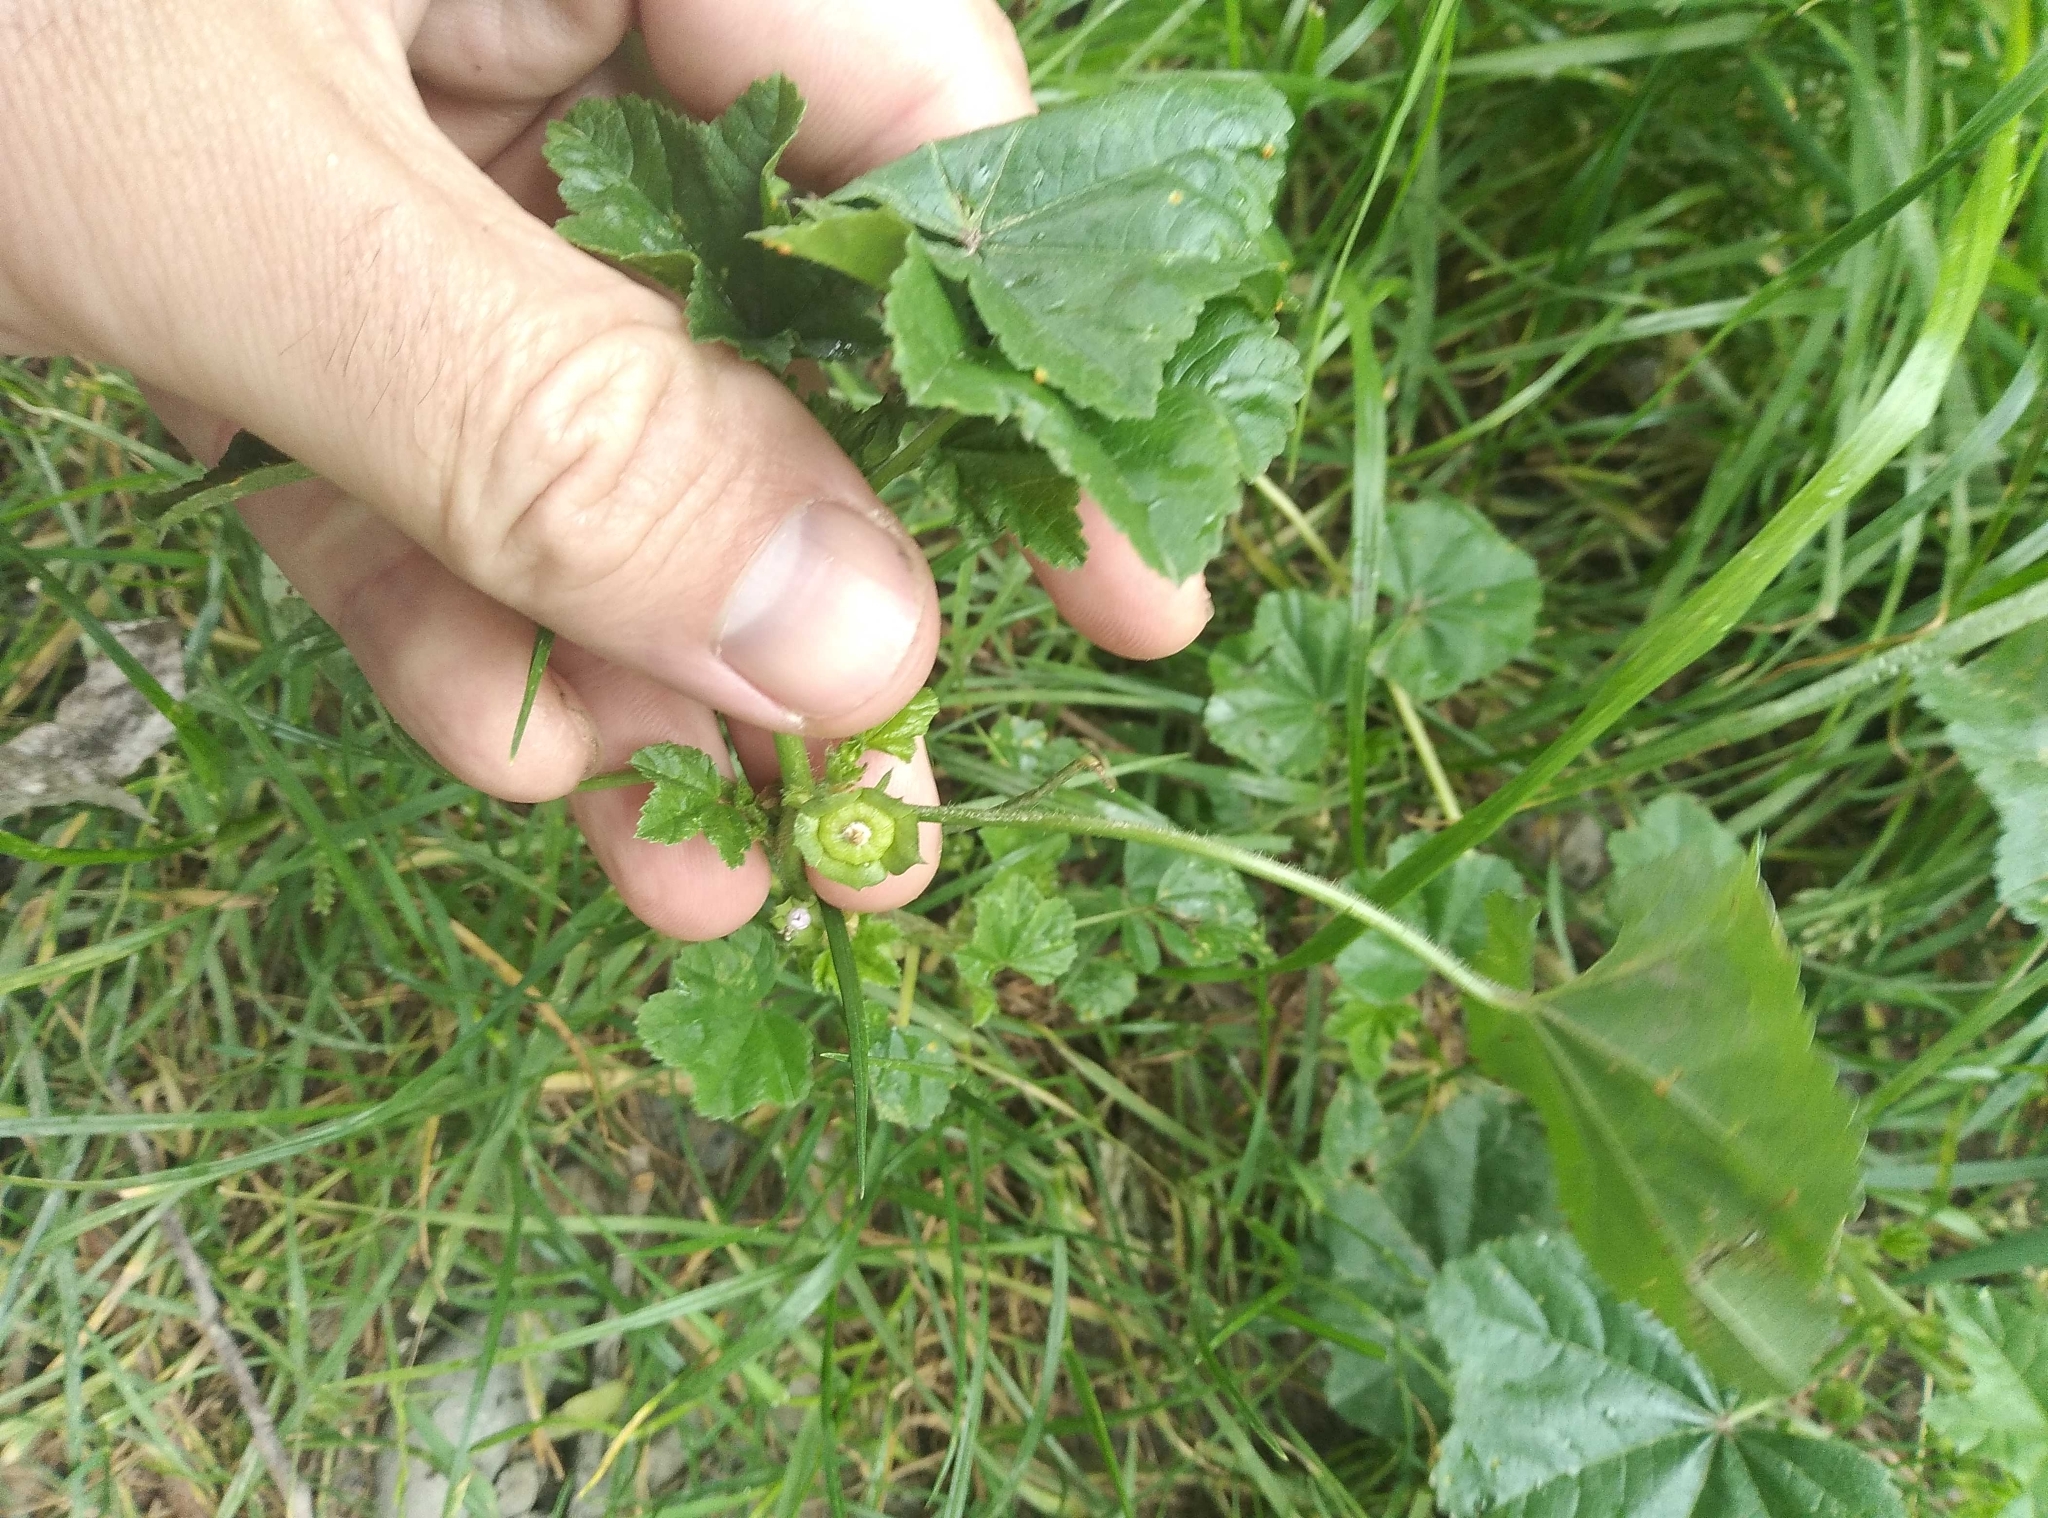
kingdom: Plantae
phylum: Tracheophyta
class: Magnoliopsida
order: Malvales
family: Malvaceae
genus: Malva
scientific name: Malva parviflora
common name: Least mallow
